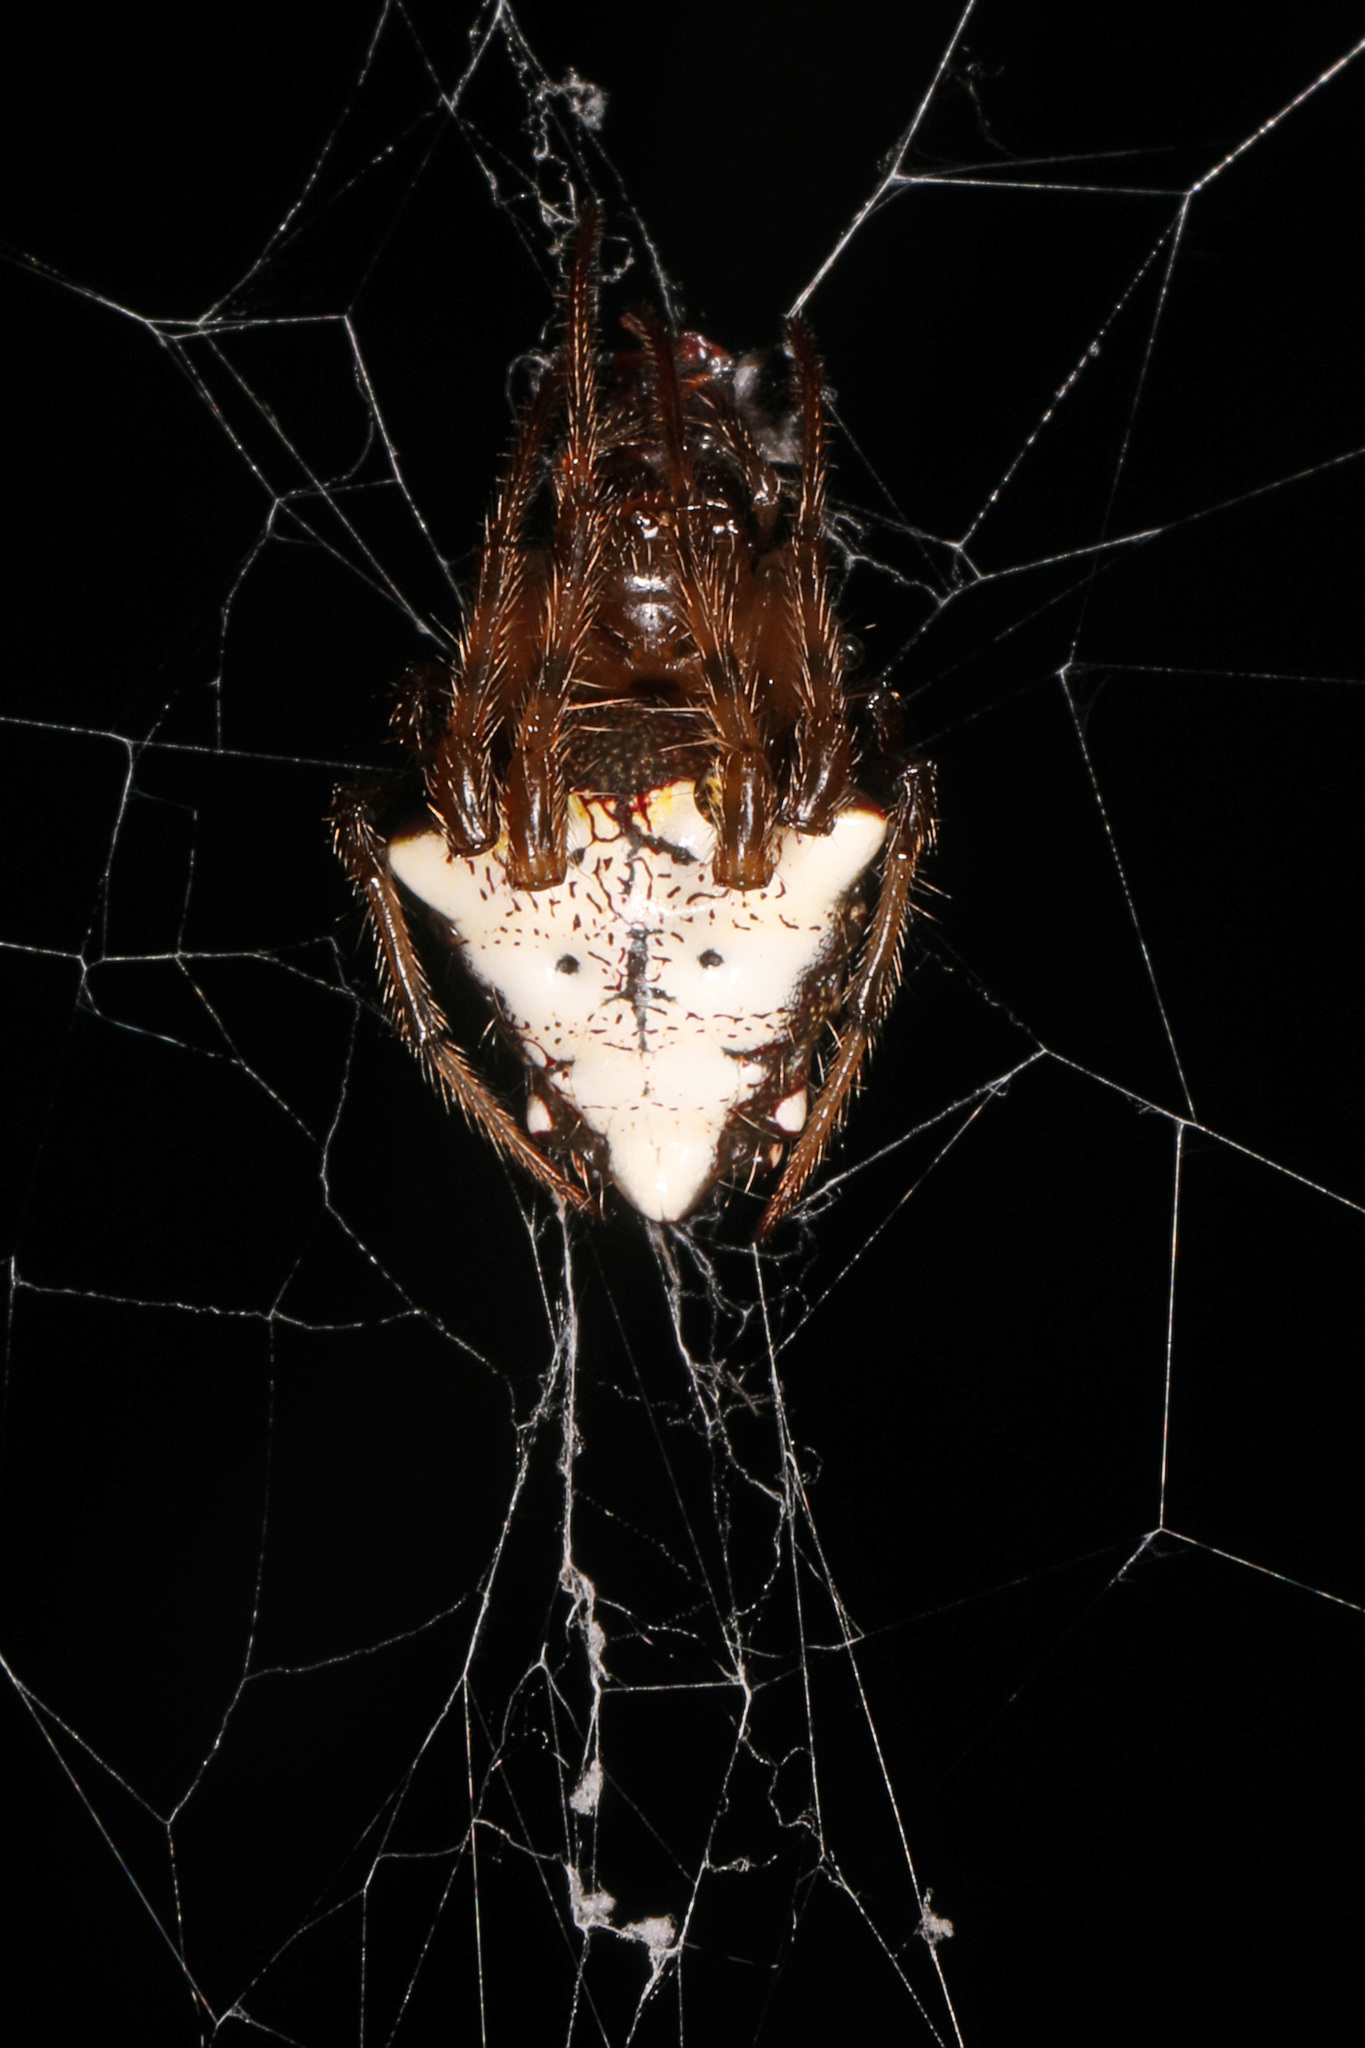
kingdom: Animalia
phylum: Arthropoda
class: Arachnida
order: Araneae
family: Araneidae
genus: Verrucosa
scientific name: Verrucosa arenata
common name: Orb weavers
